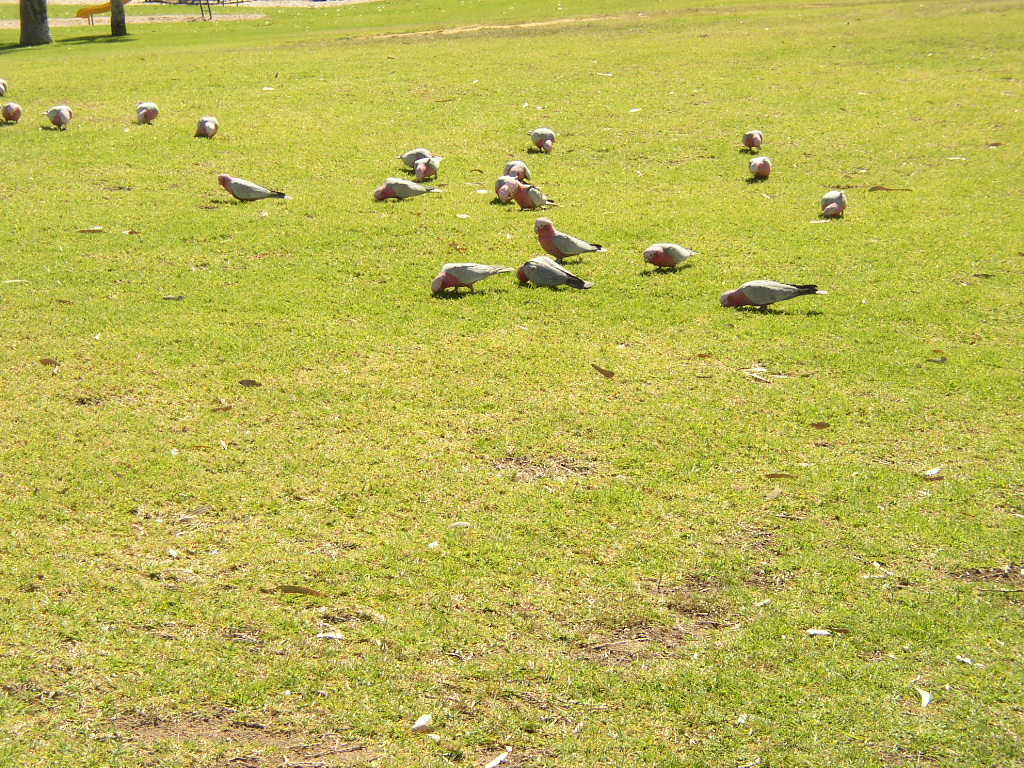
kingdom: Animalia
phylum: Chordata
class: Aves
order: Psittaciformes
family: Psittacidae
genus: Eolophus
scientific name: Eolophus roseicapilla
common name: Galah
